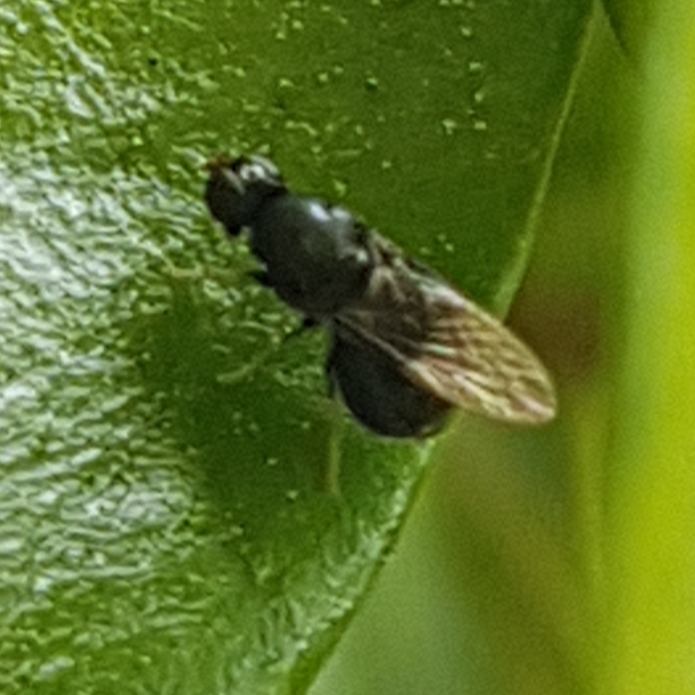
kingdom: Animalia
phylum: Arthropoda
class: Insecta
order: Diptera
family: Stratiomyidae
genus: Pachygaster
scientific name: Pachygaster atra
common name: Dark-winged black
